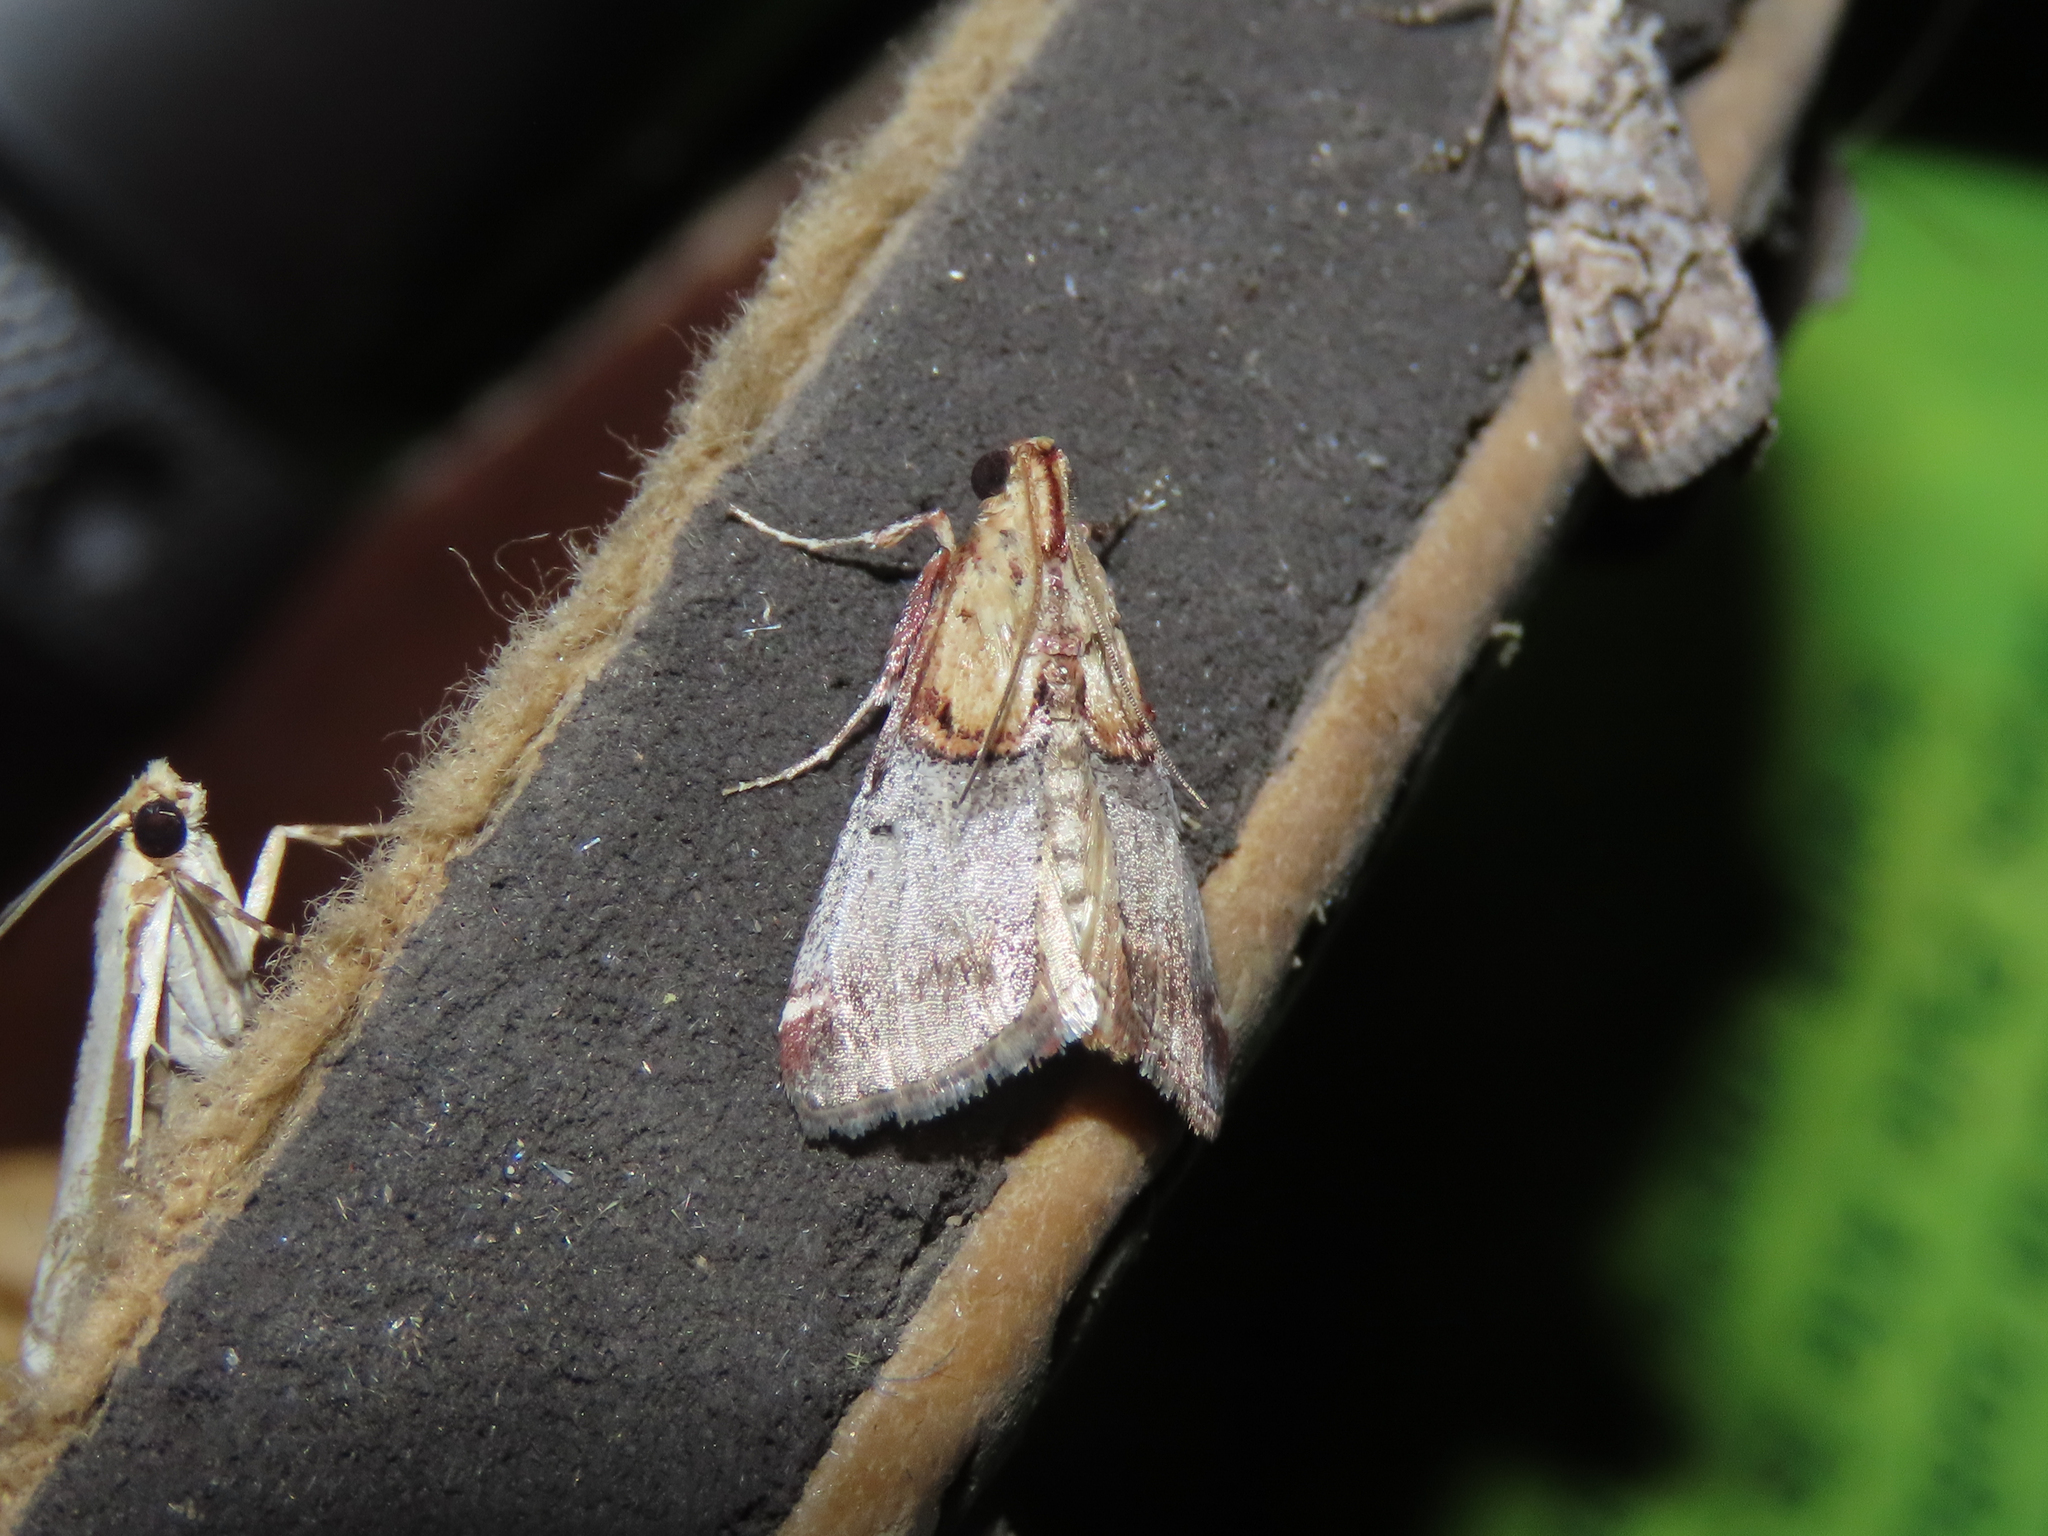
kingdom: Animalia
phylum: Arthropoda
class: Insecta
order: Lepidoptera
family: Pyralidae
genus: Cacozelia
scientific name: Cacozelia basiochrealis
